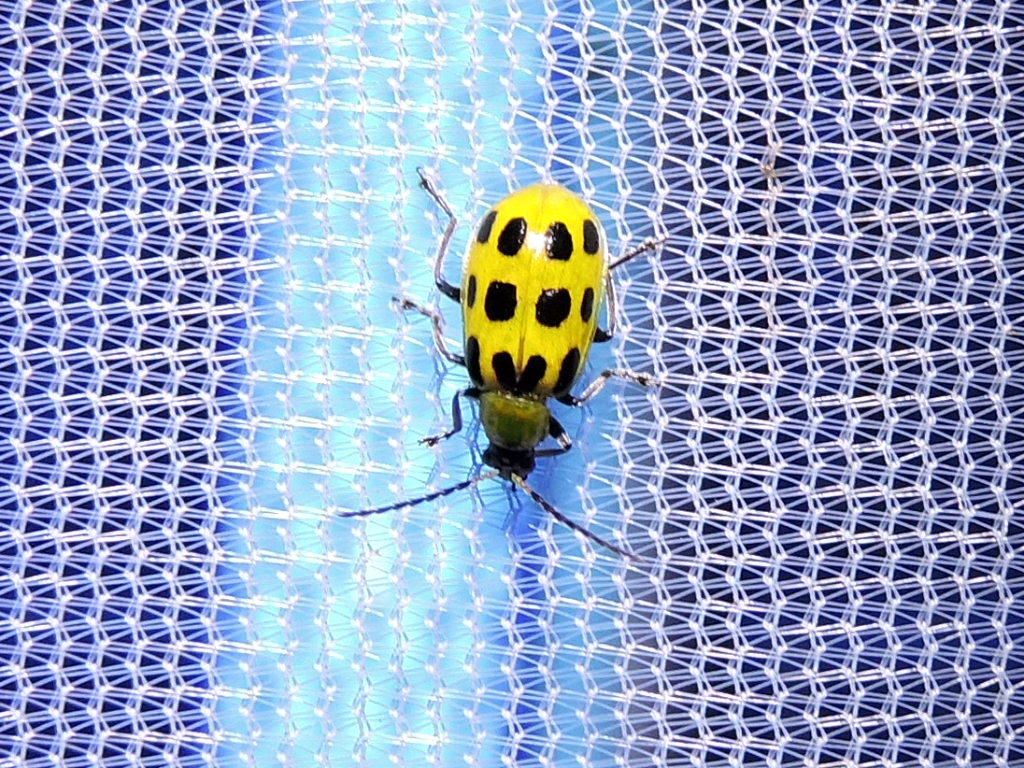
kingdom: Animalia
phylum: Arthropoda
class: Insecta
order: Coleoptera
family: Chrysomelidae
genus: Diabrotica
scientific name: Diabrotica undecimpunctata
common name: Spotted cucumber beetle
